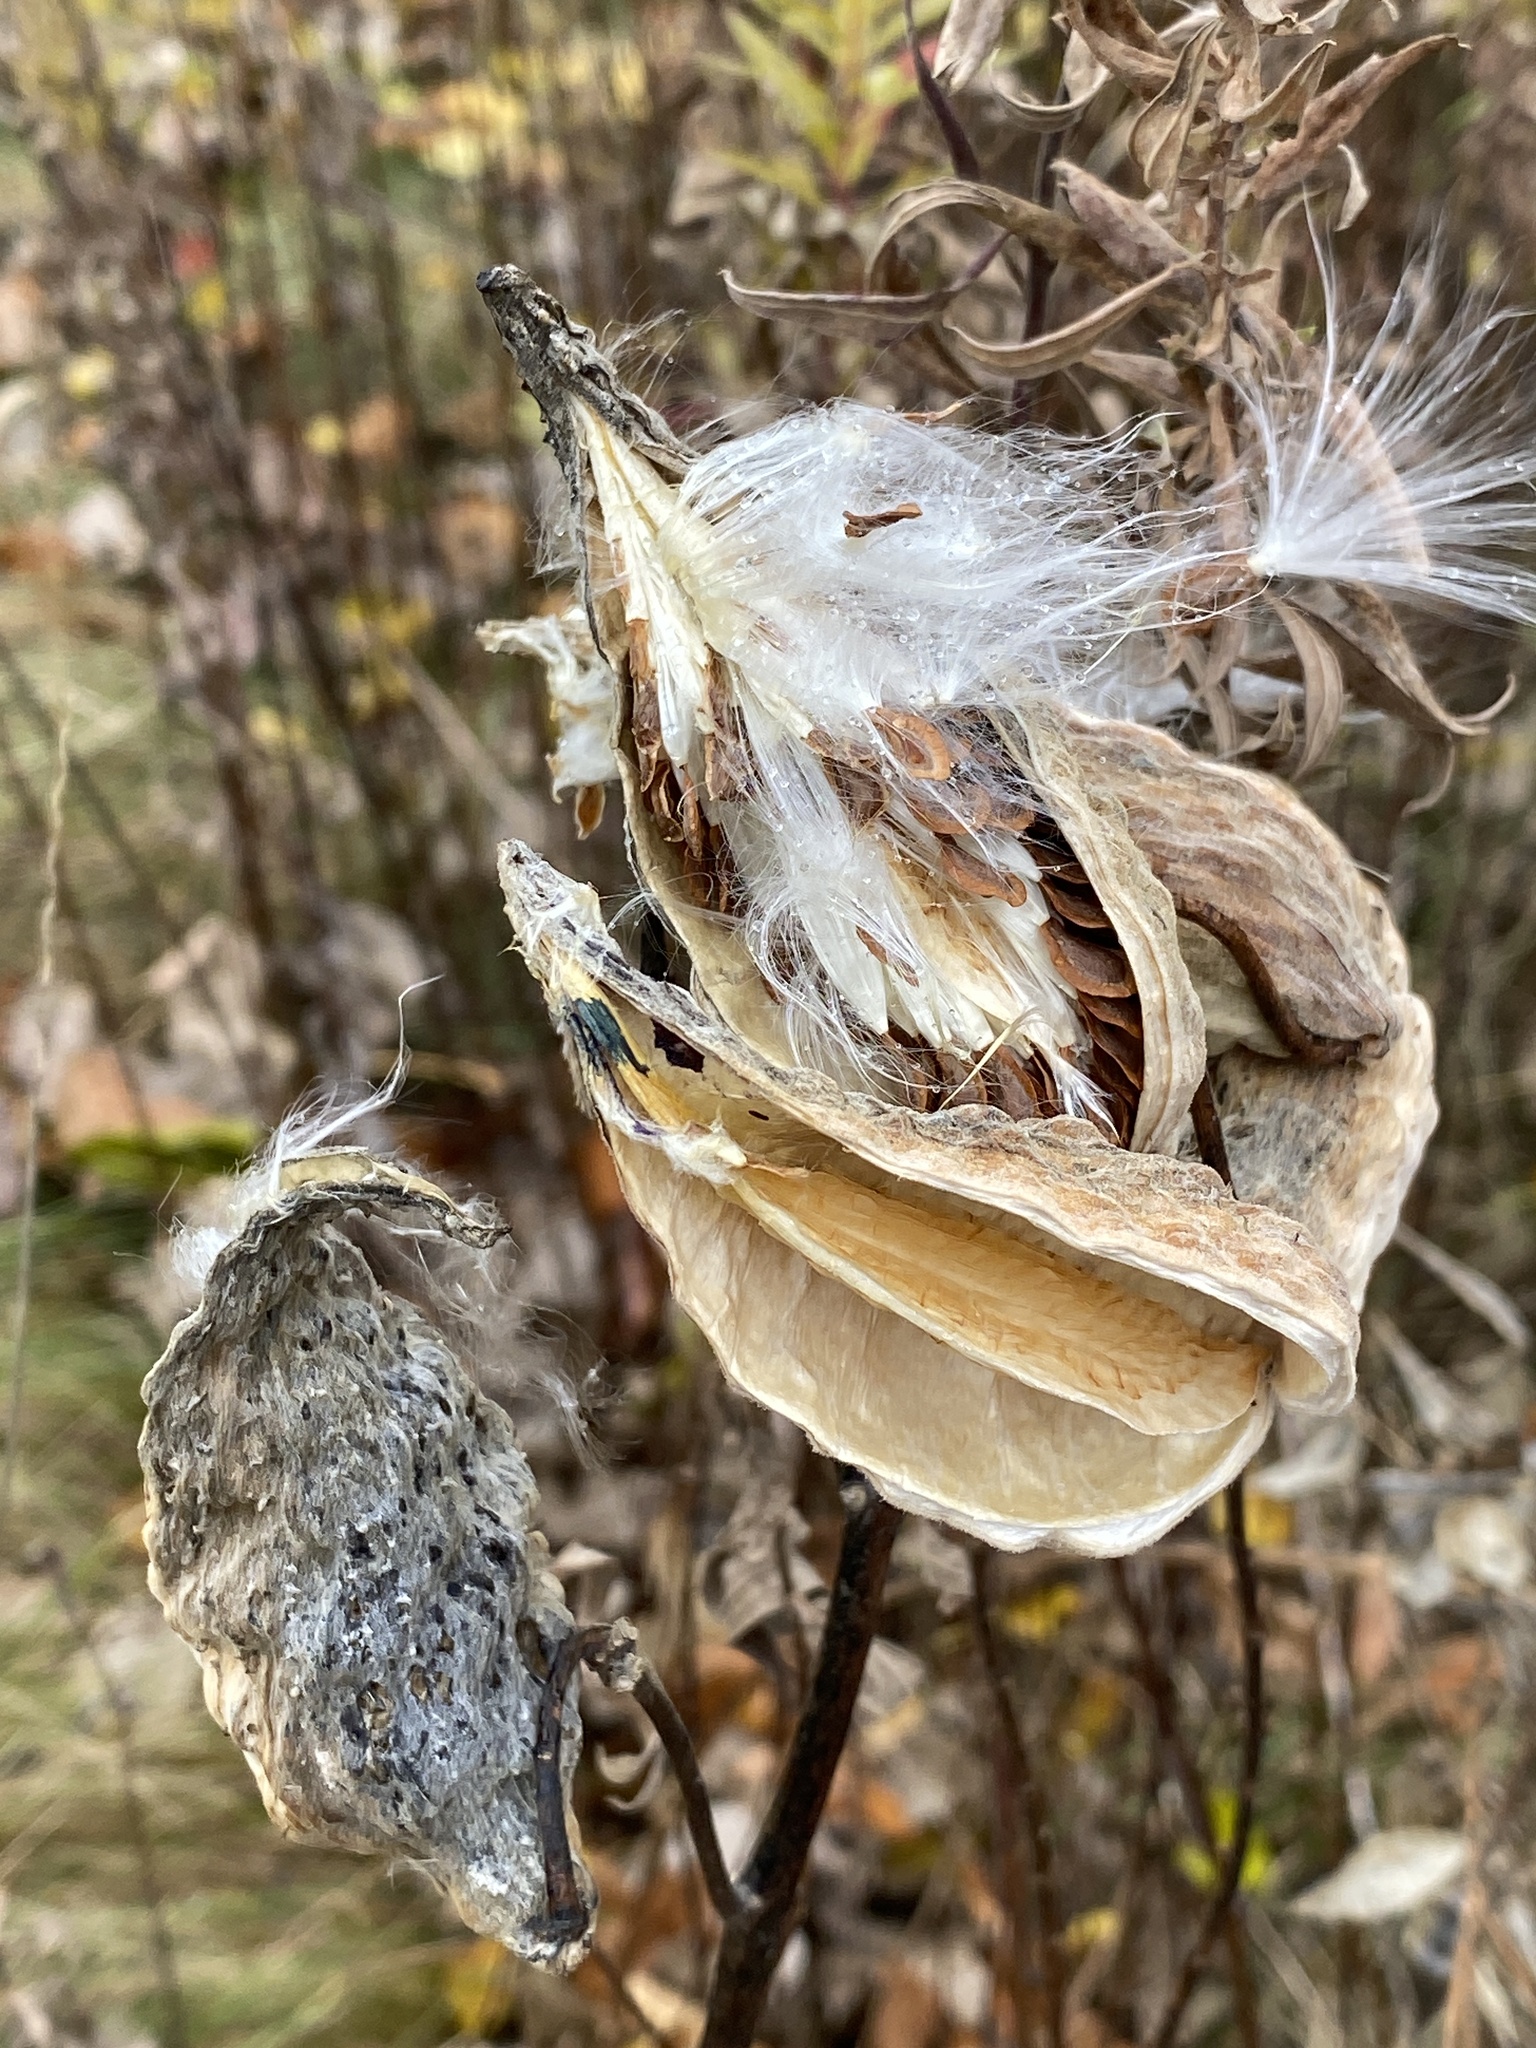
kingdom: Plantae
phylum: Tracheophyta
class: Magnoliopsida
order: Gentianales
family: Apocynaceae
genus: Asclepias
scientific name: Asclepias syriaca
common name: Common milkweed
